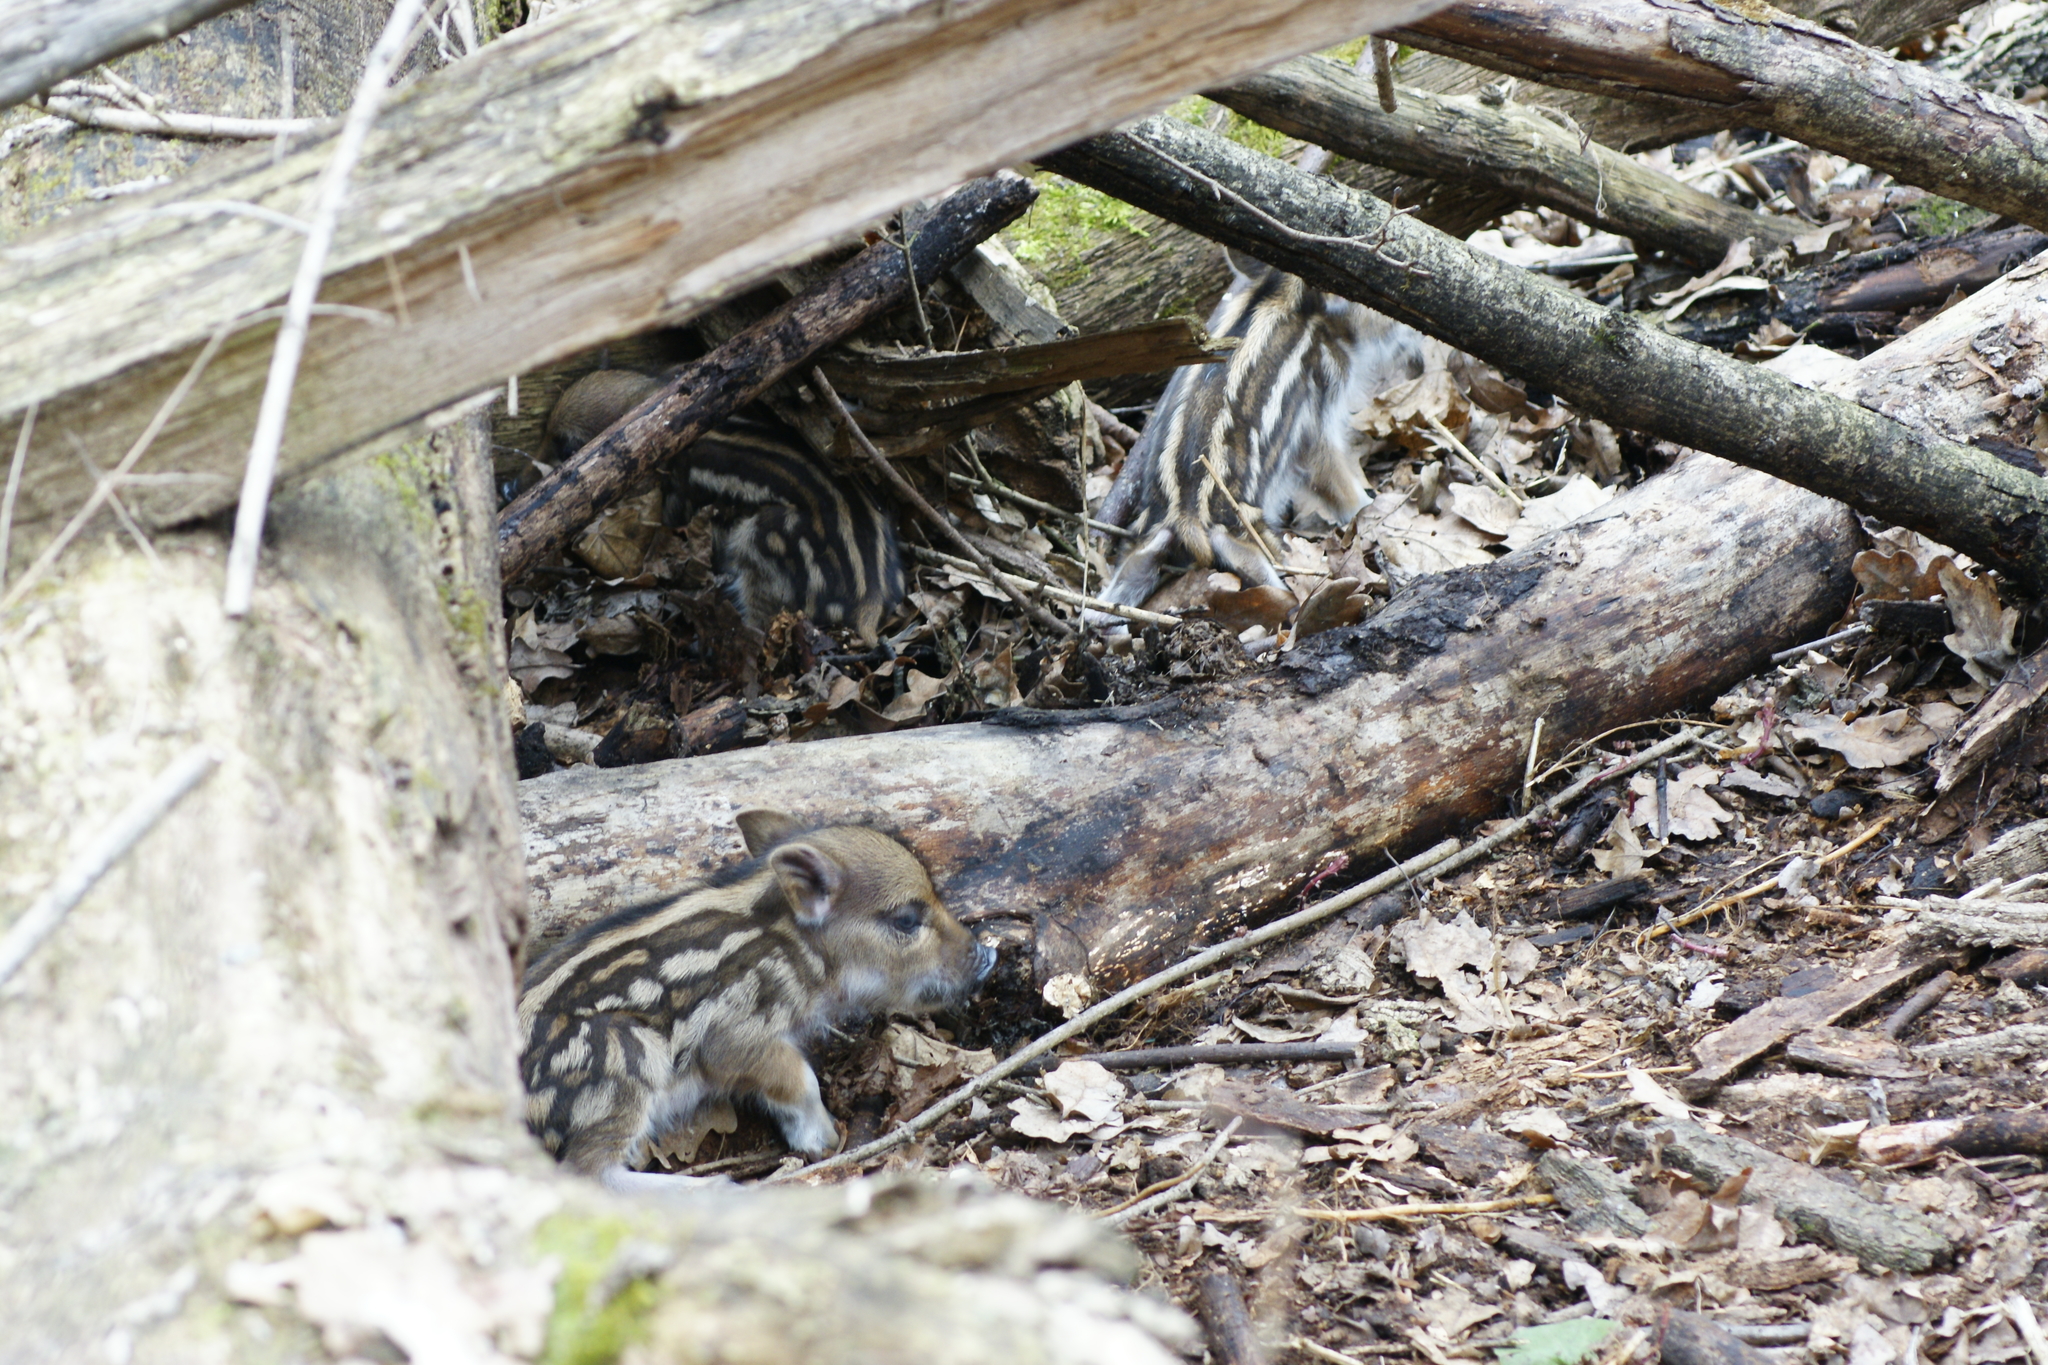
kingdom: Animalia
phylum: Chordata
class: Mammalia
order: Artiodactyla
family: Suidae
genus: Sus
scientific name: Sus scrofa
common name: Wild boar
